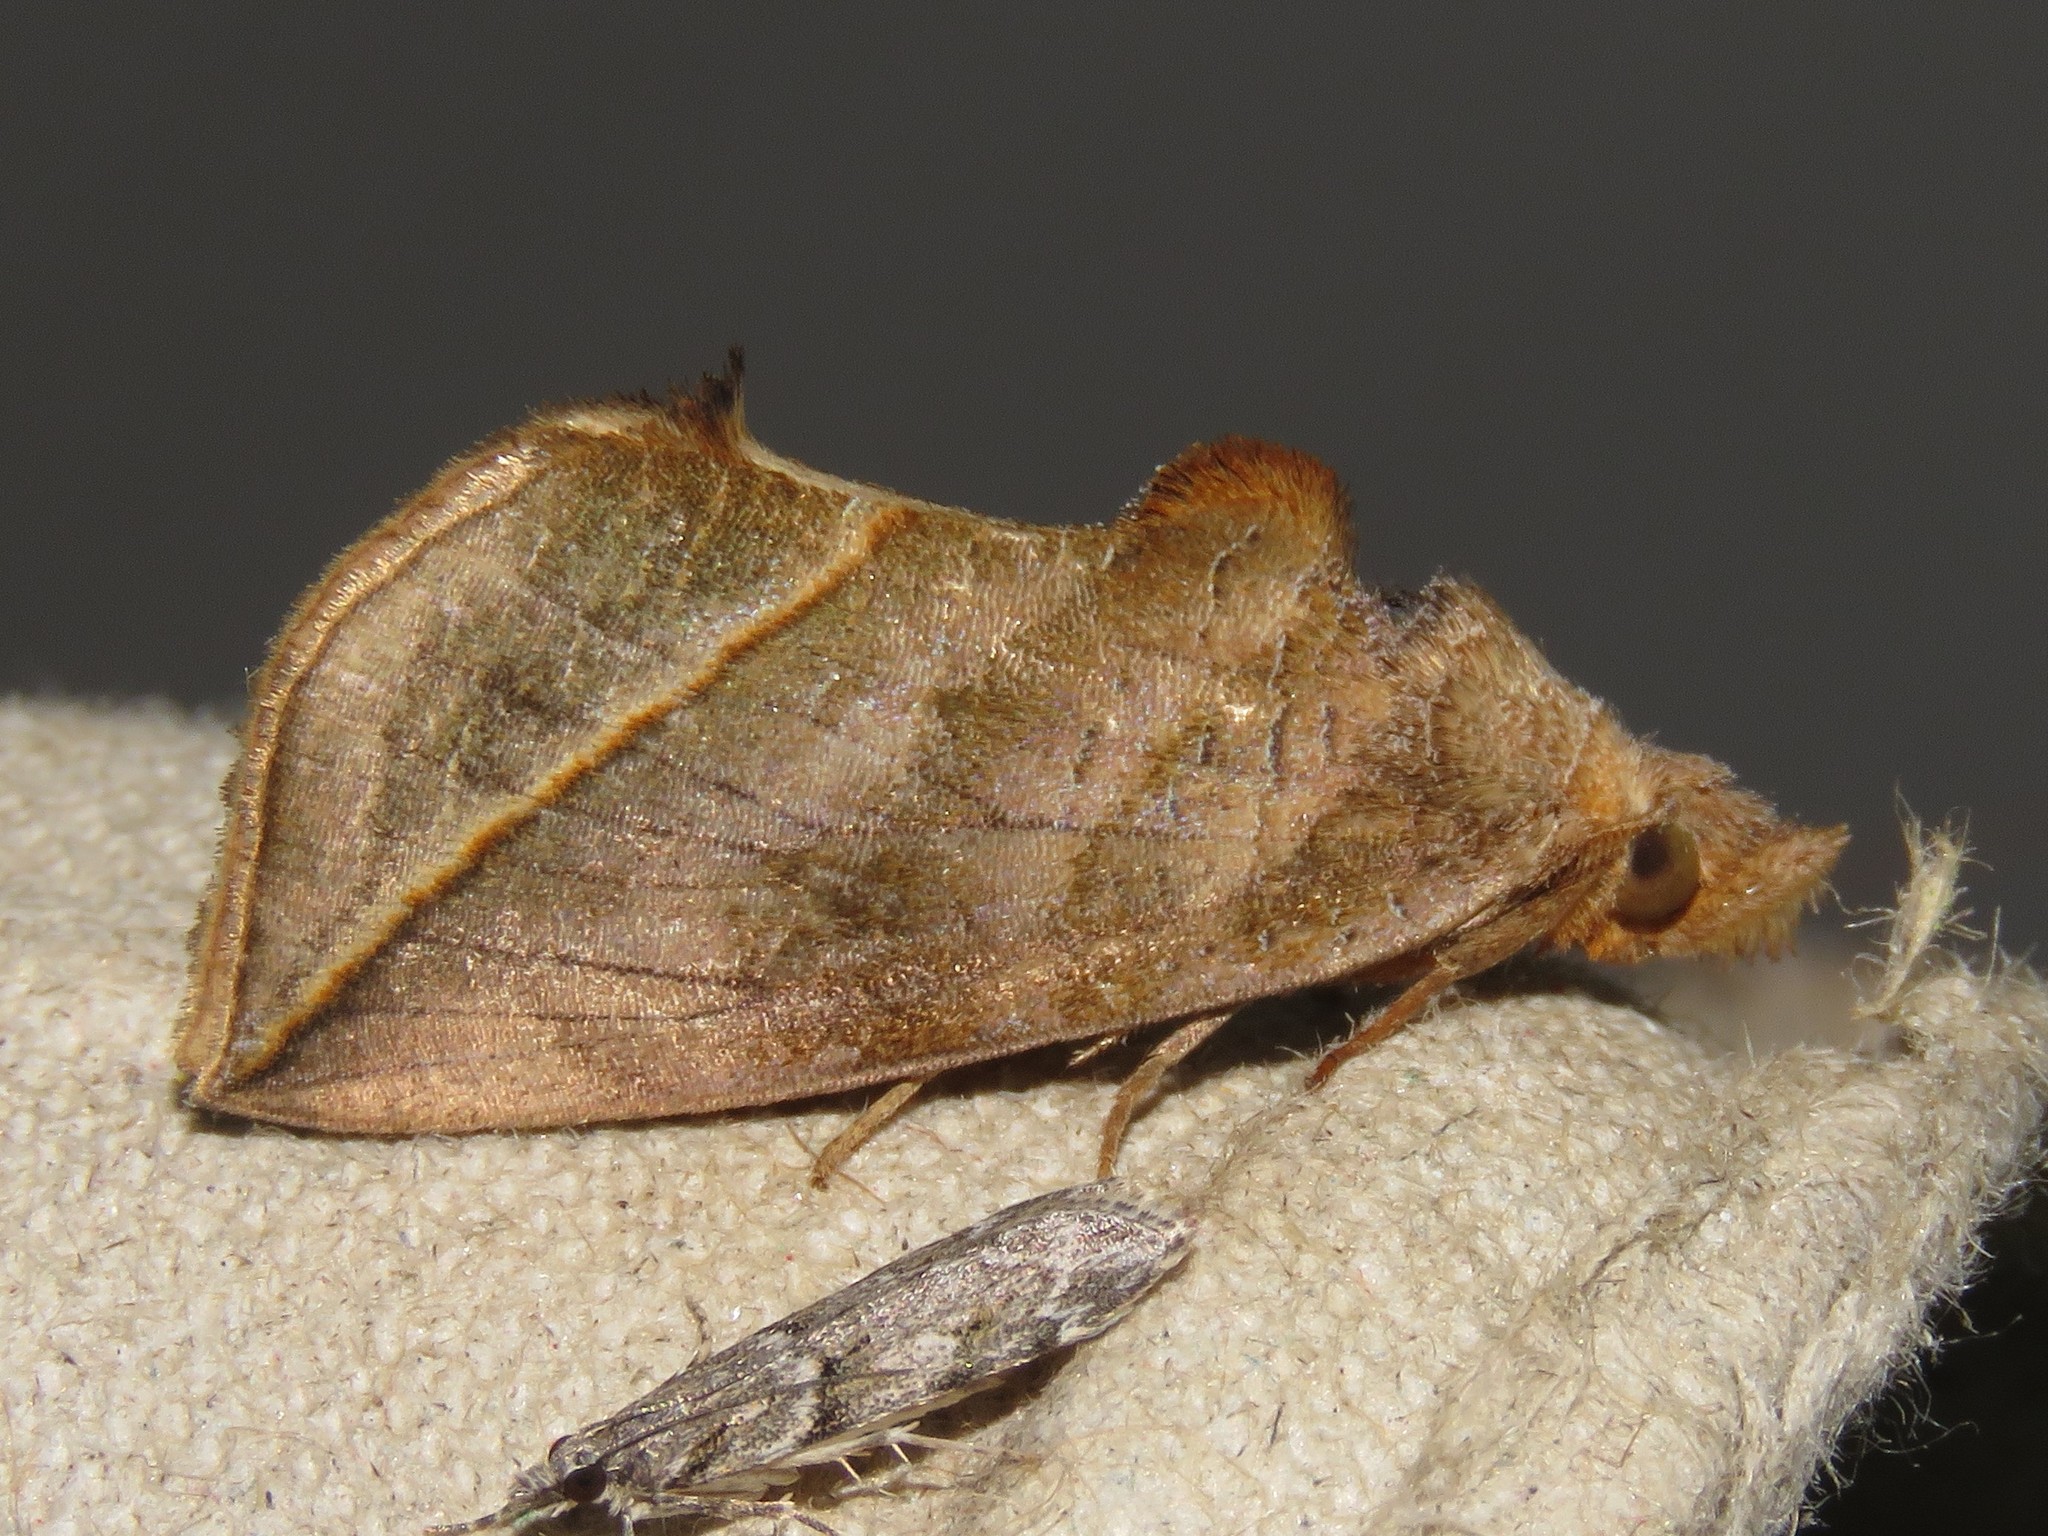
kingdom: Animalia
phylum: Arthropoda
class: Insecta
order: Lepidoptera
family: Erebidae
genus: Calyptra
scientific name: Calyptra canadensis
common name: Canadian owlet
